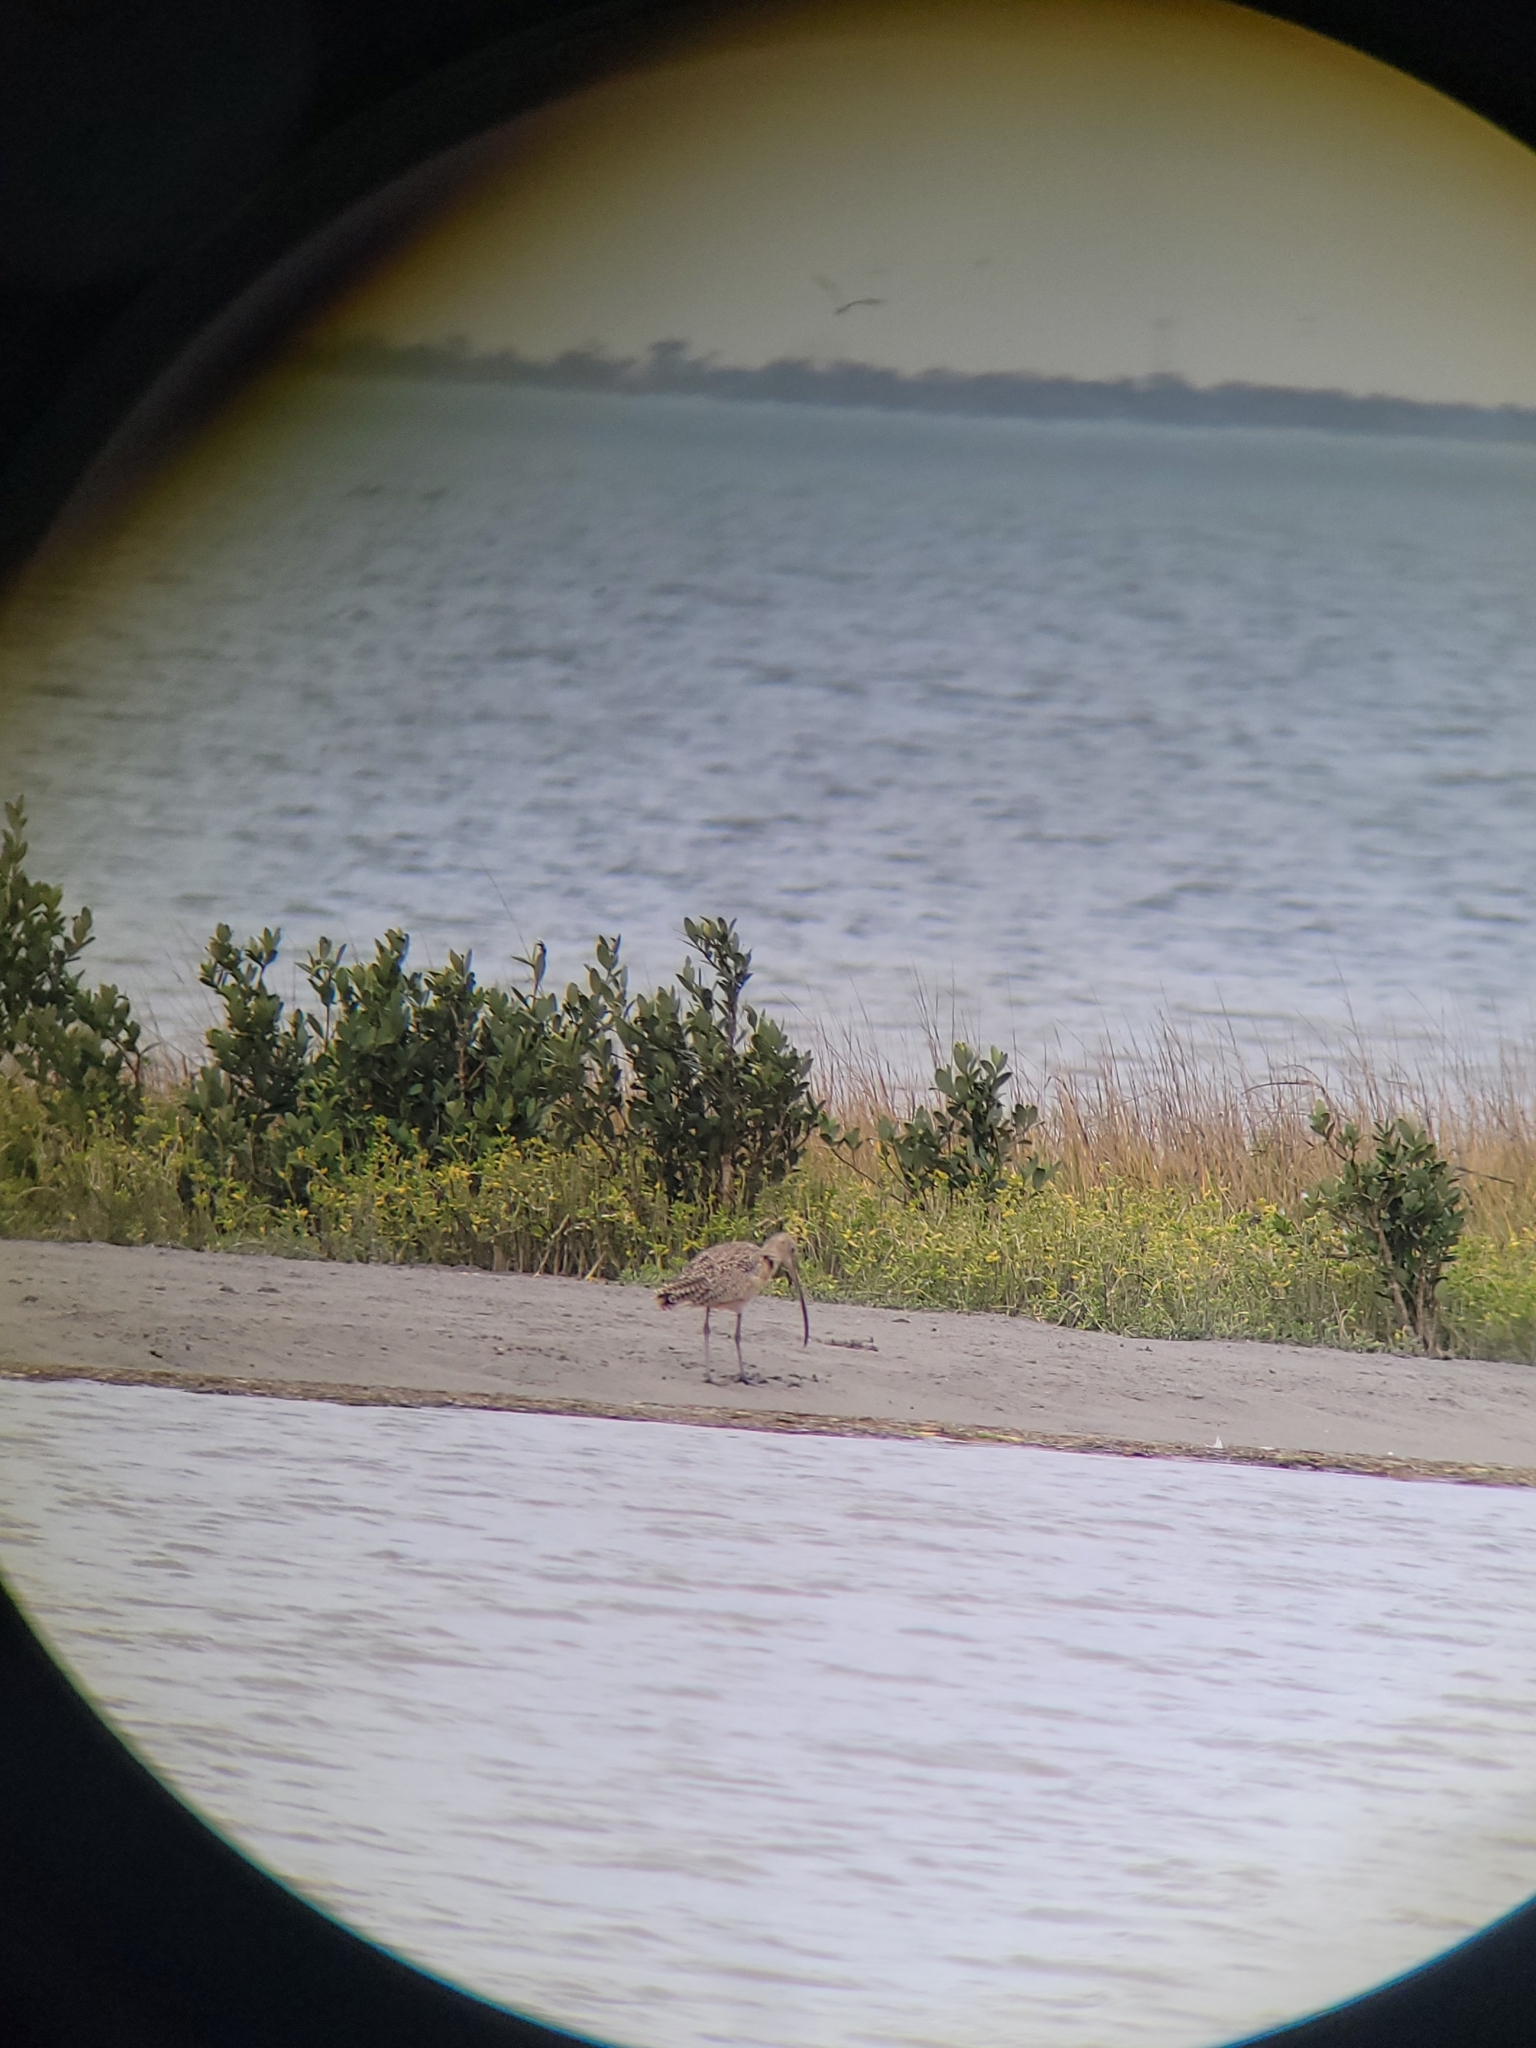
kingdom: Animalia
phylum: Chordata
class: Aves
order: Charadriiformes
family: Scolopacidae
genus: Numenius
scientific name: Numenius americanus
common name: Long-billed curlew
